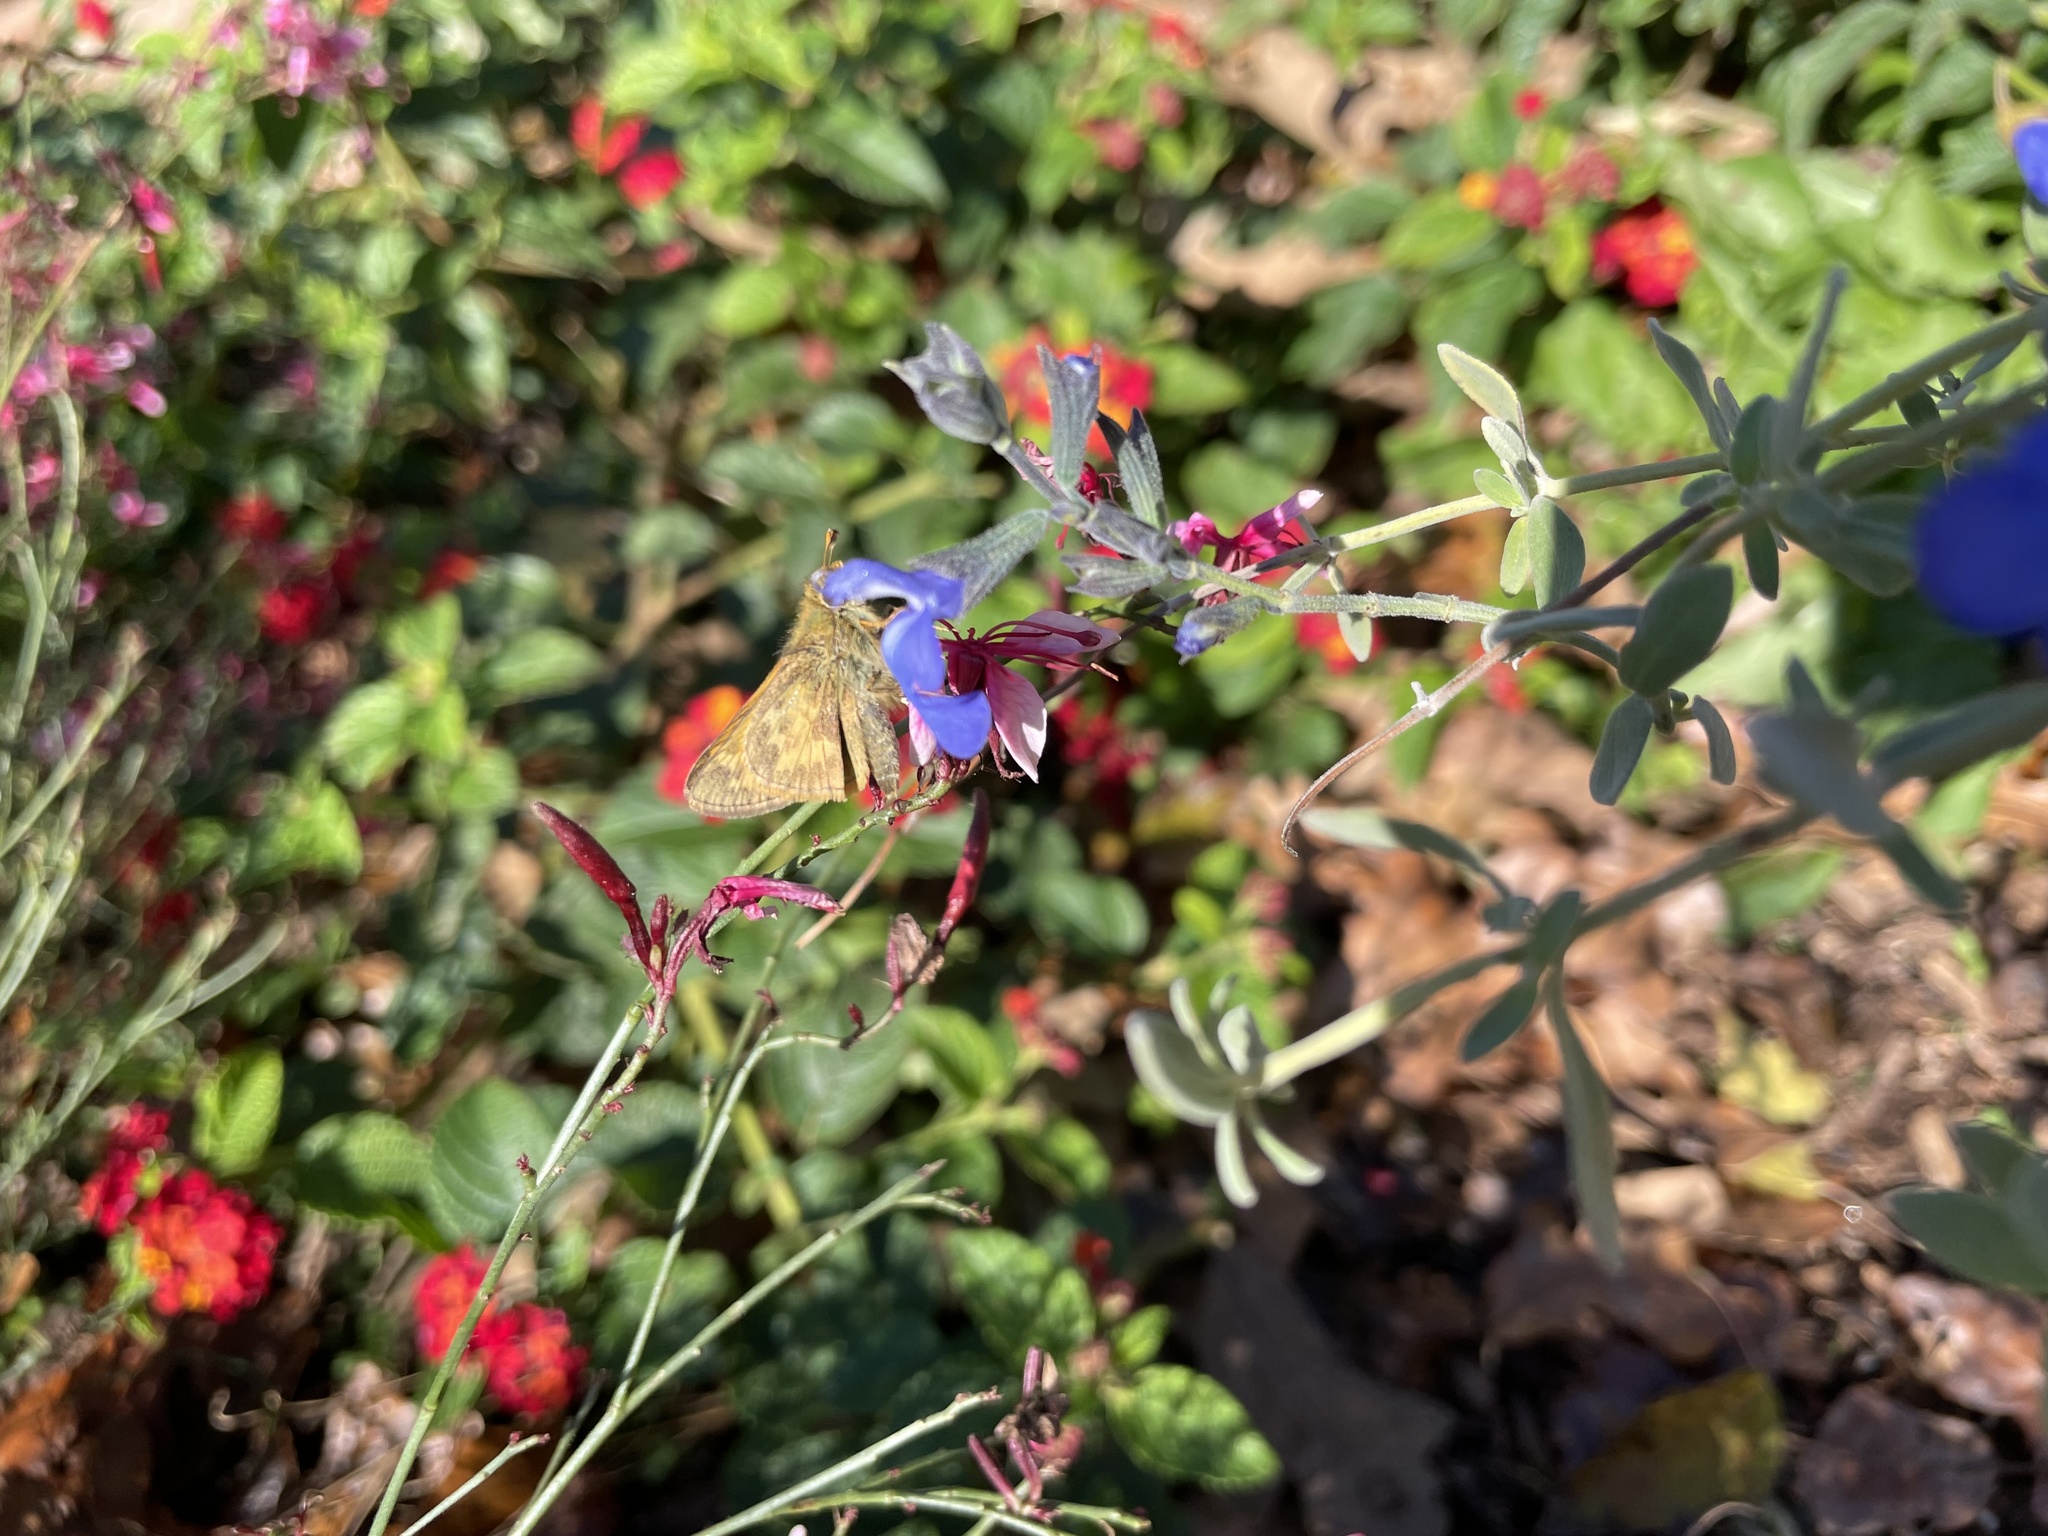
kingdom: Animalia
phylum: Arthropoda
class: Insecta
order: Lepidoptera
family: Hesperiidae
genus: Atalopedes
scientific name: Atalopedes
